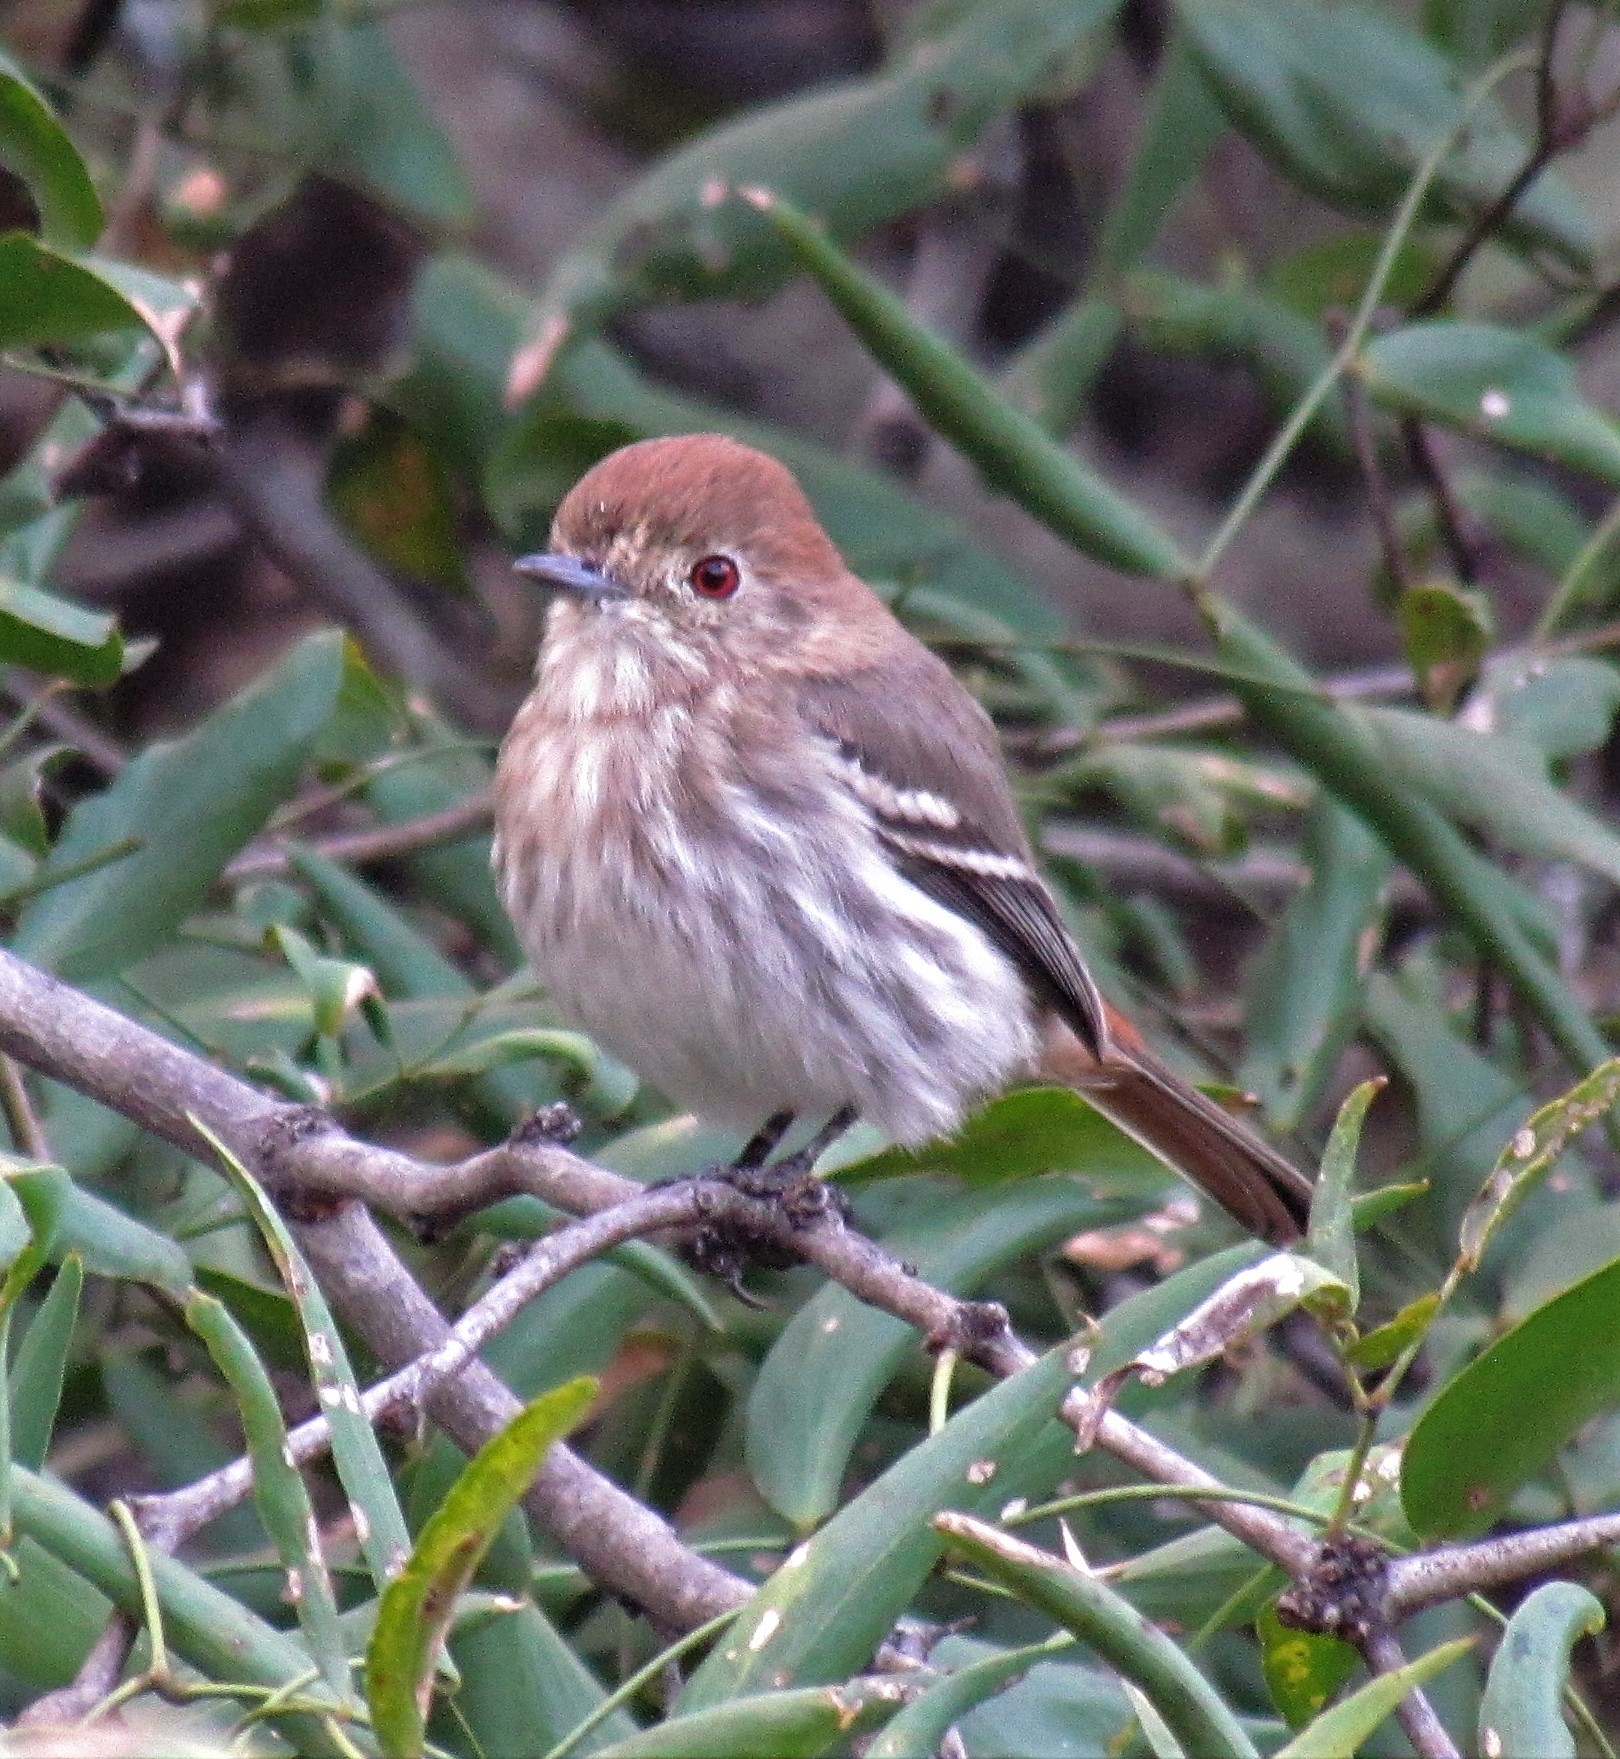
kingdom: Animalia
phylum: Chordata
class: Aves
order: Passeriformes
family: Tyrannidae
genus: Knipolegus
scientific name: Knipolegus striaticeps
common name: Cinereous tyrant
